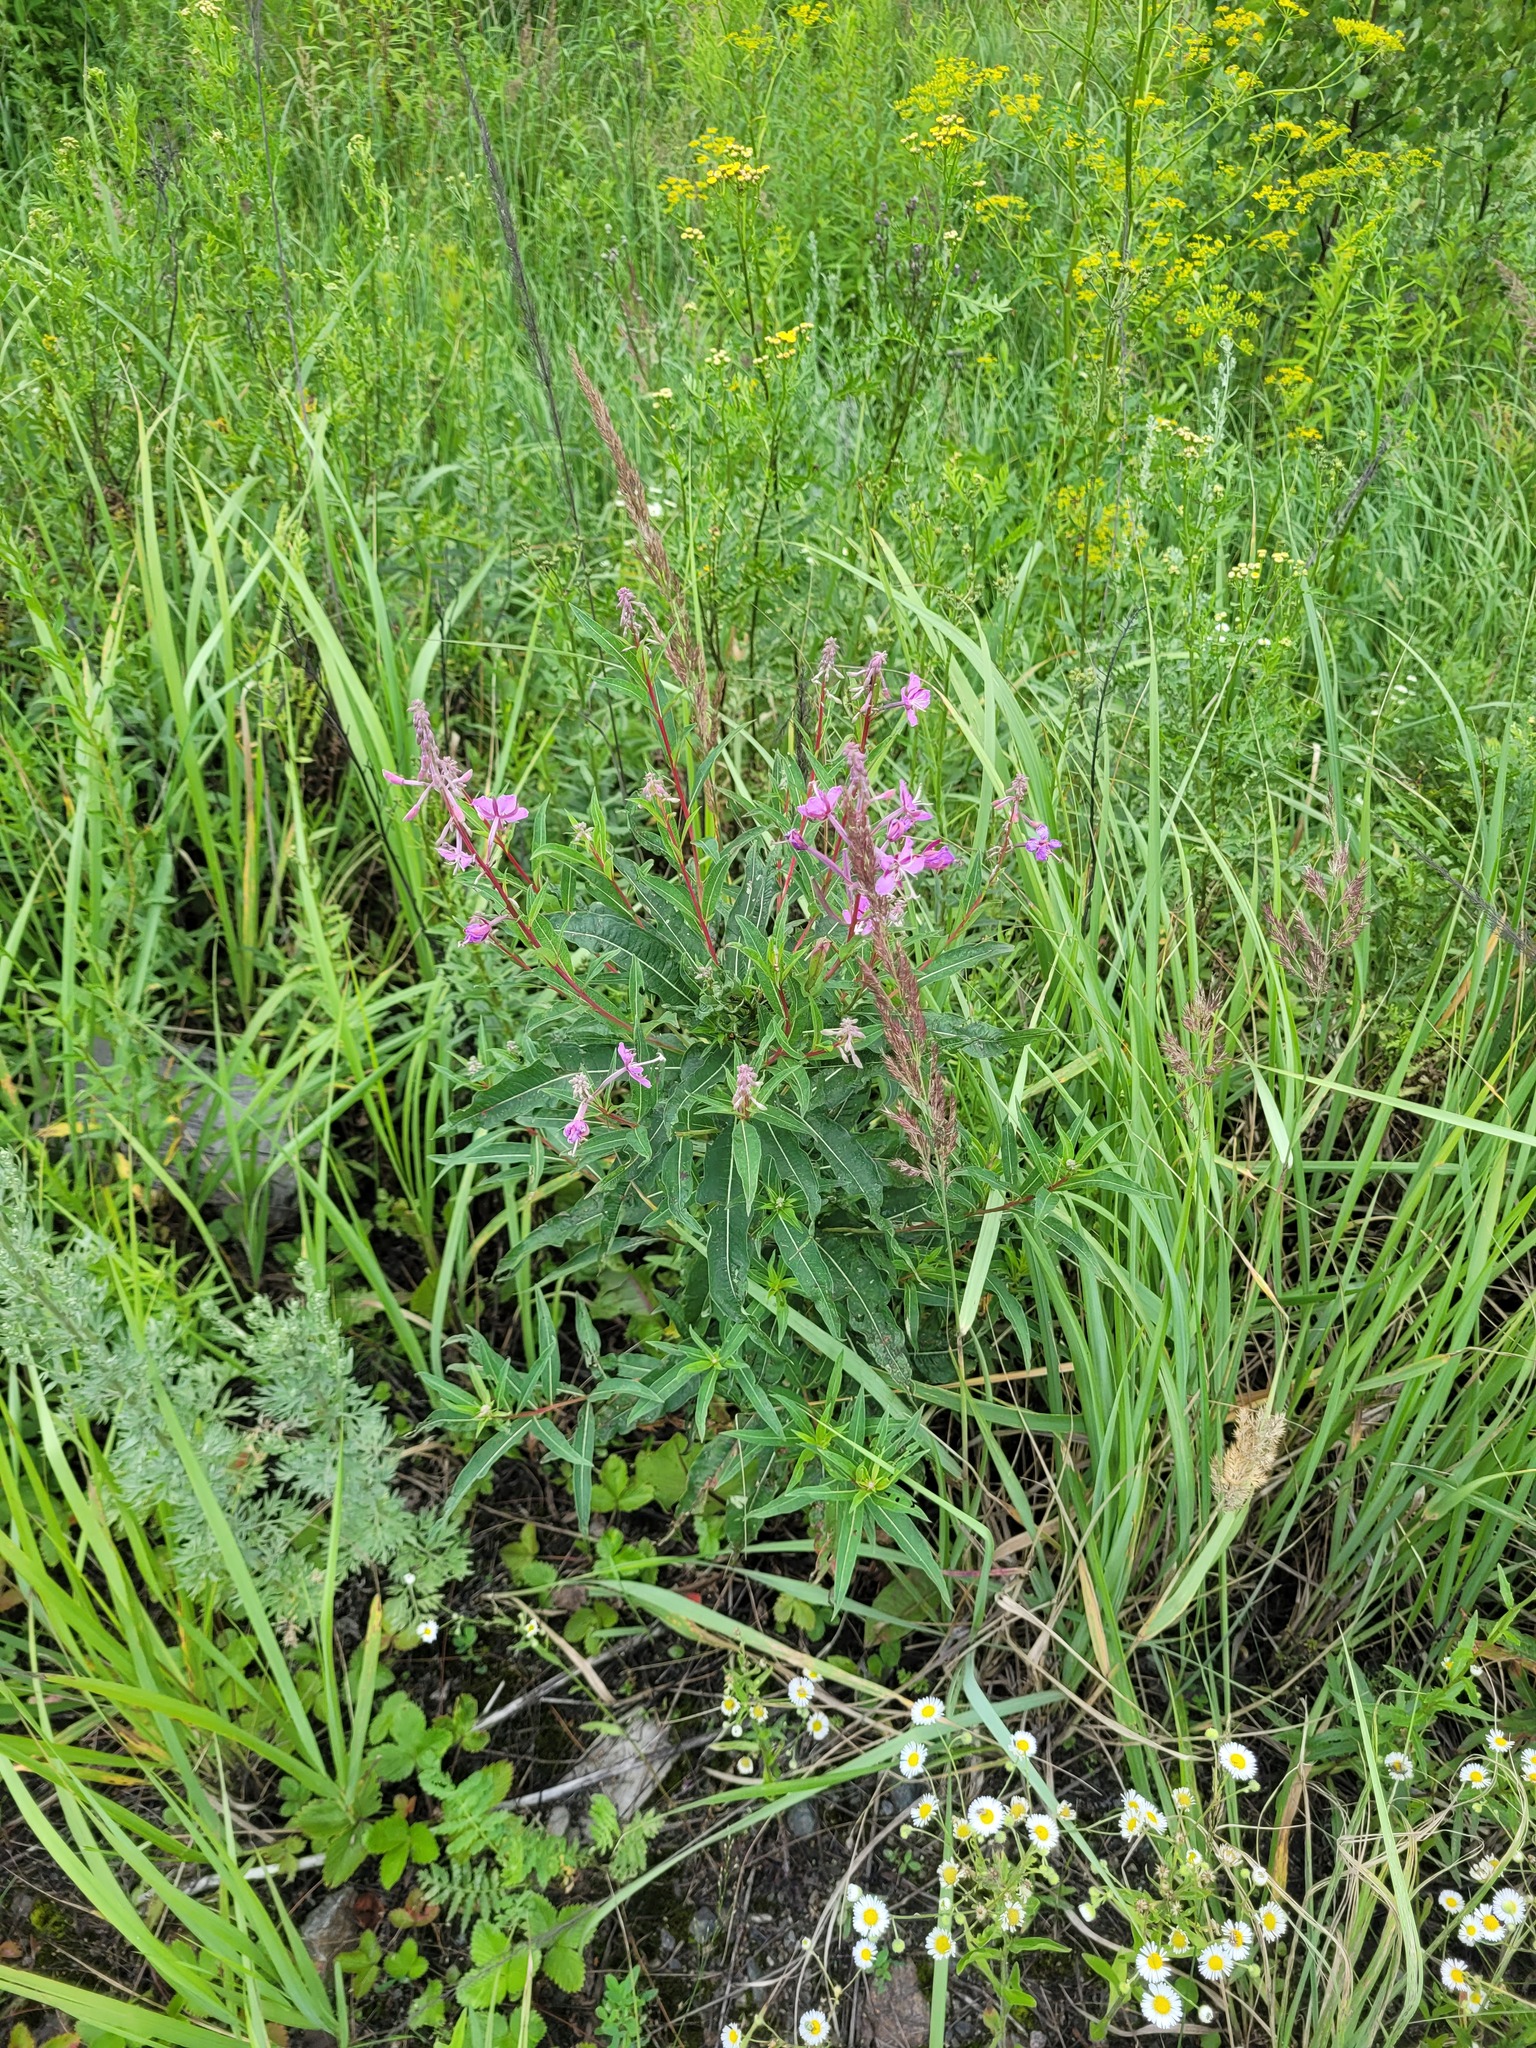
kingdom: Plantae
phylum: Tracheophyta
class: Magnoliopsida
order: Myrtales
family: Onagraceae
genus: Chamaenerion
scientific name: Chamaenerion angustifolium
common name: Fireweed
